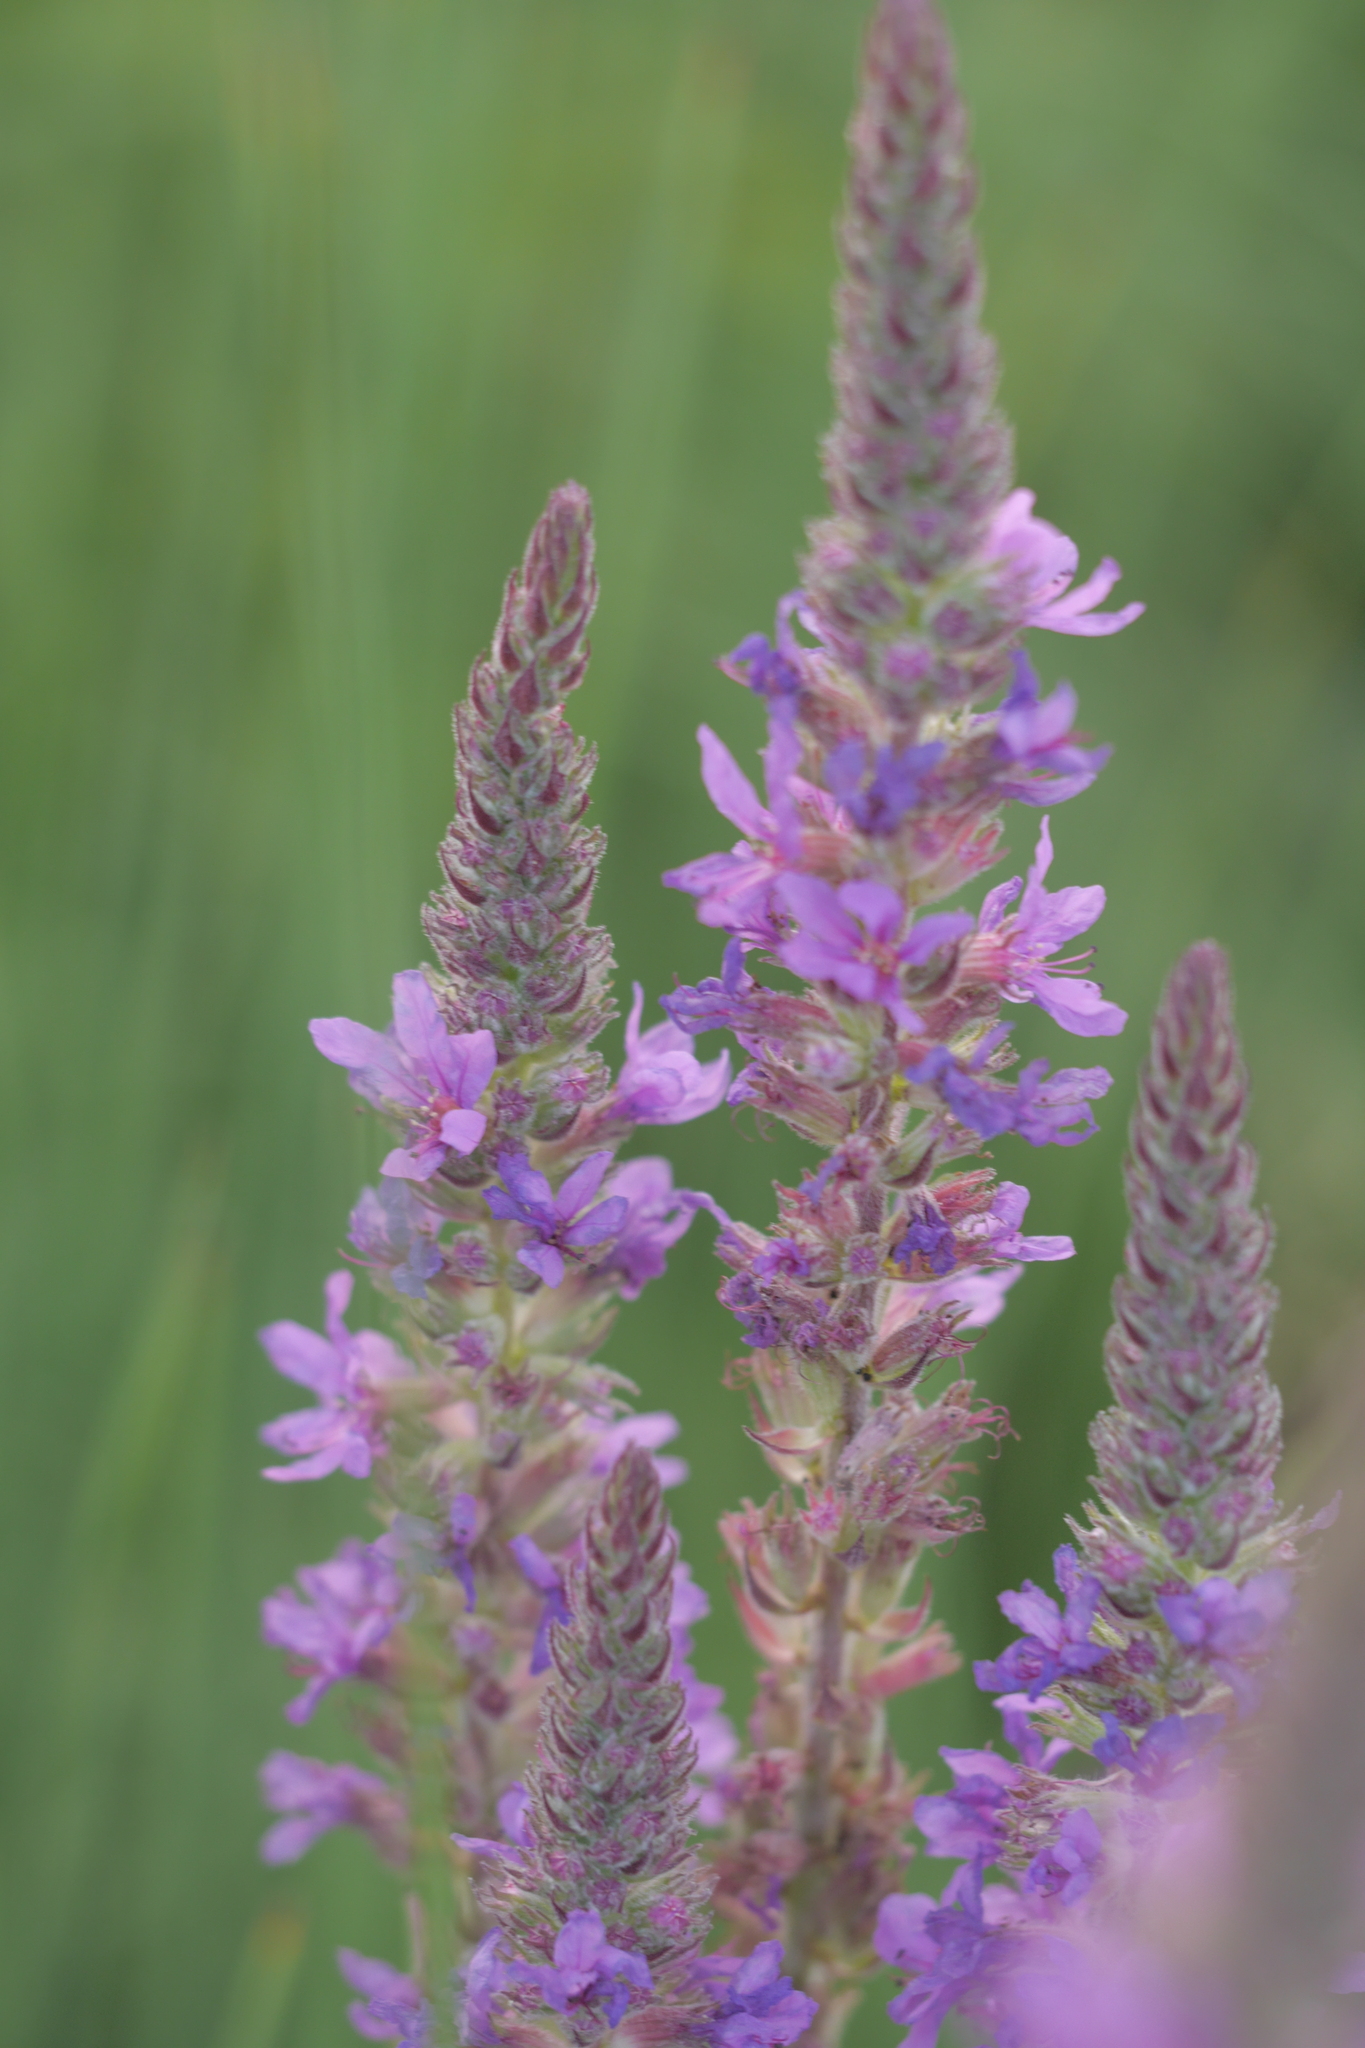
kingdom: Plantae
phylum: Tracheophyta
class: Magnoliopsida
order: Myrtales
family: Lythraceae
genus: Lythrum
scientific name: Lythrum salicaria
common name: Purple loosestrife
